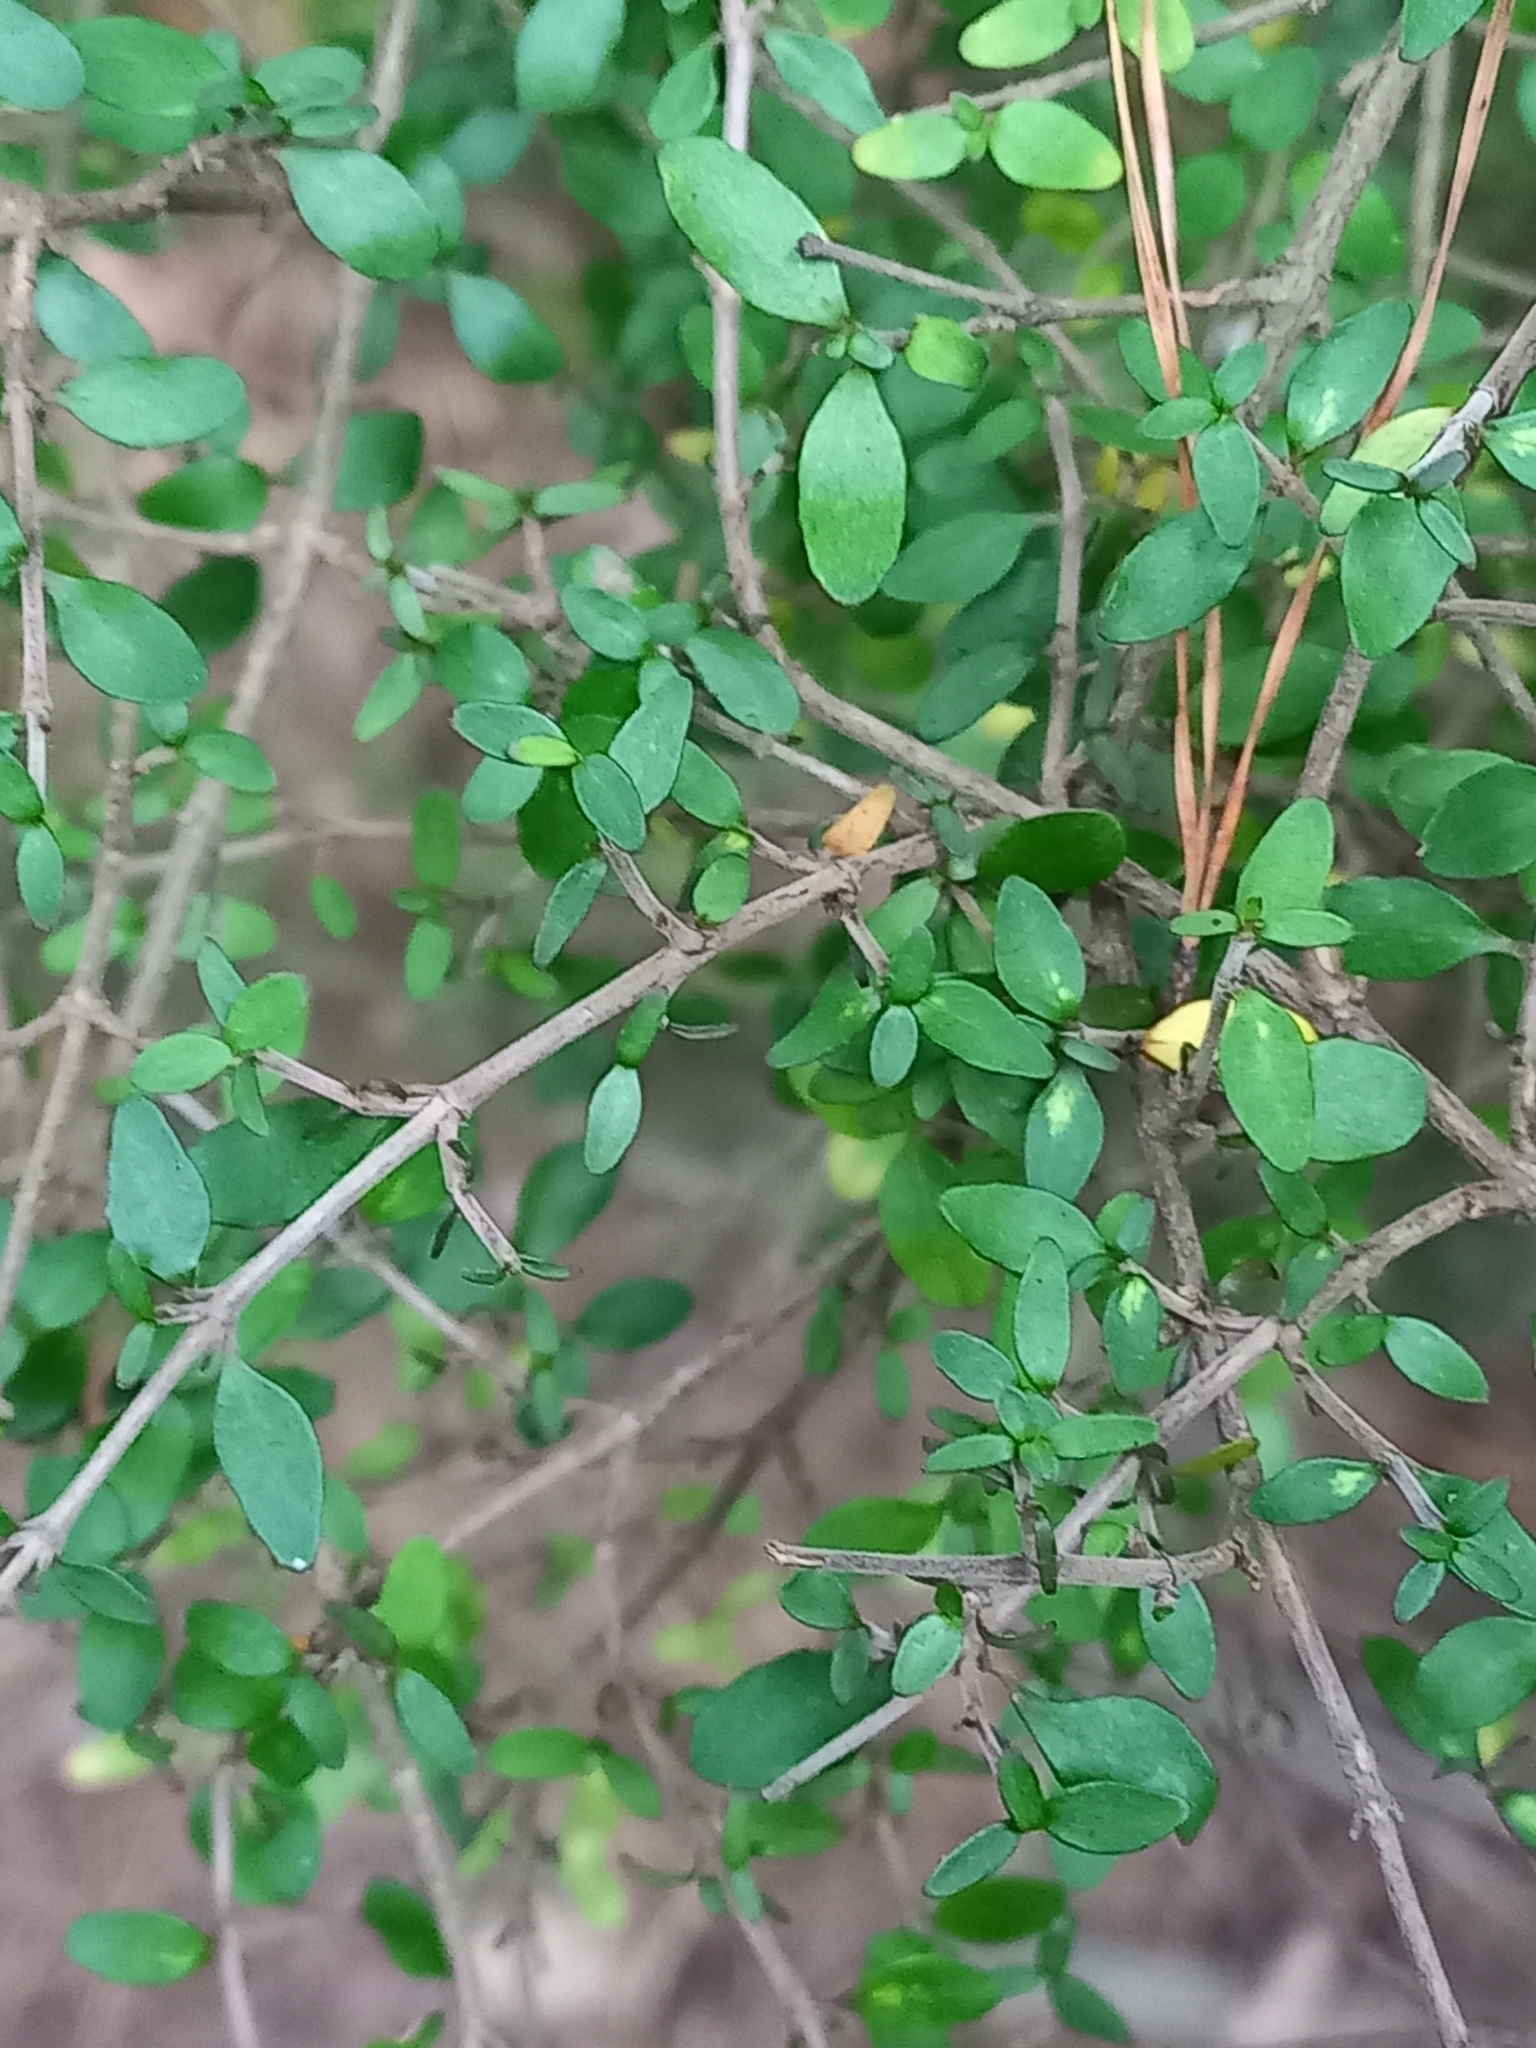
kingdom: Plantae
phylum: Tracheophyta
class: Magnoliopsida
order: Gentianales
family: Rubiaceae
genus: Coprosma
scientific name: Coprosma propinqua
